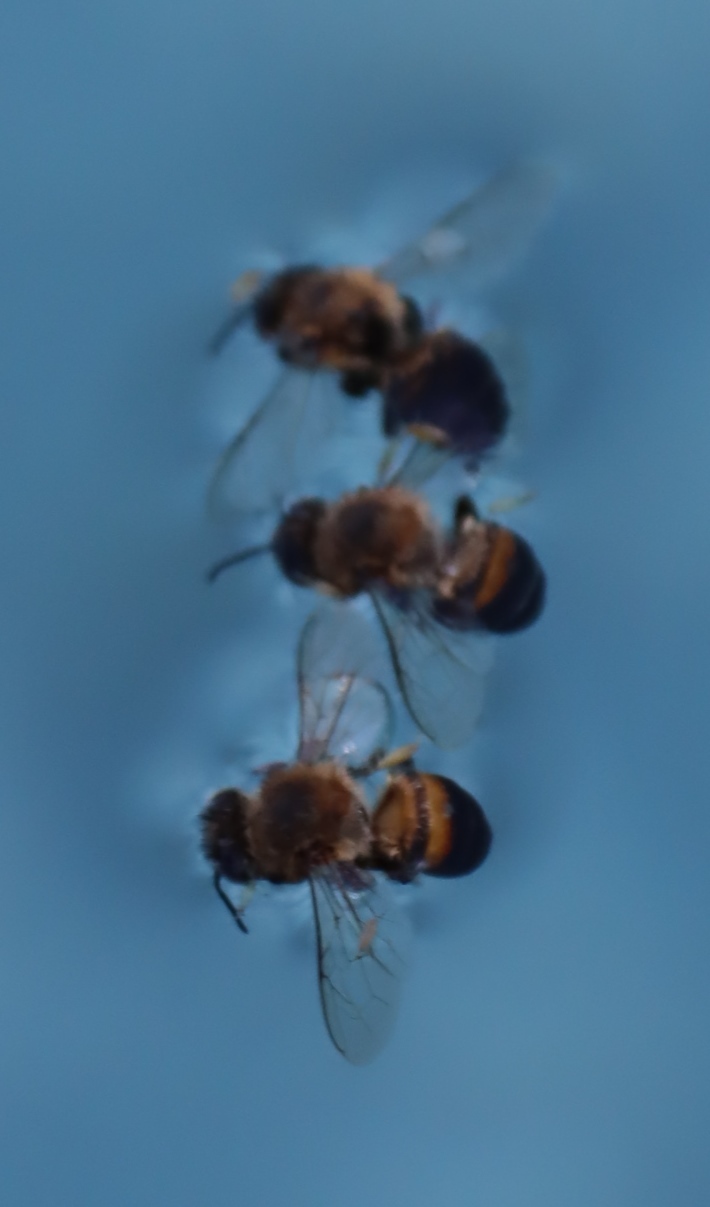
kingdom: Animalia
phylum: Arthropoda
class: Insecta
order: Hymenoptera
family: Apidae
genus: Apis
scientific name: Apis mellifera
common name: Honey bee
